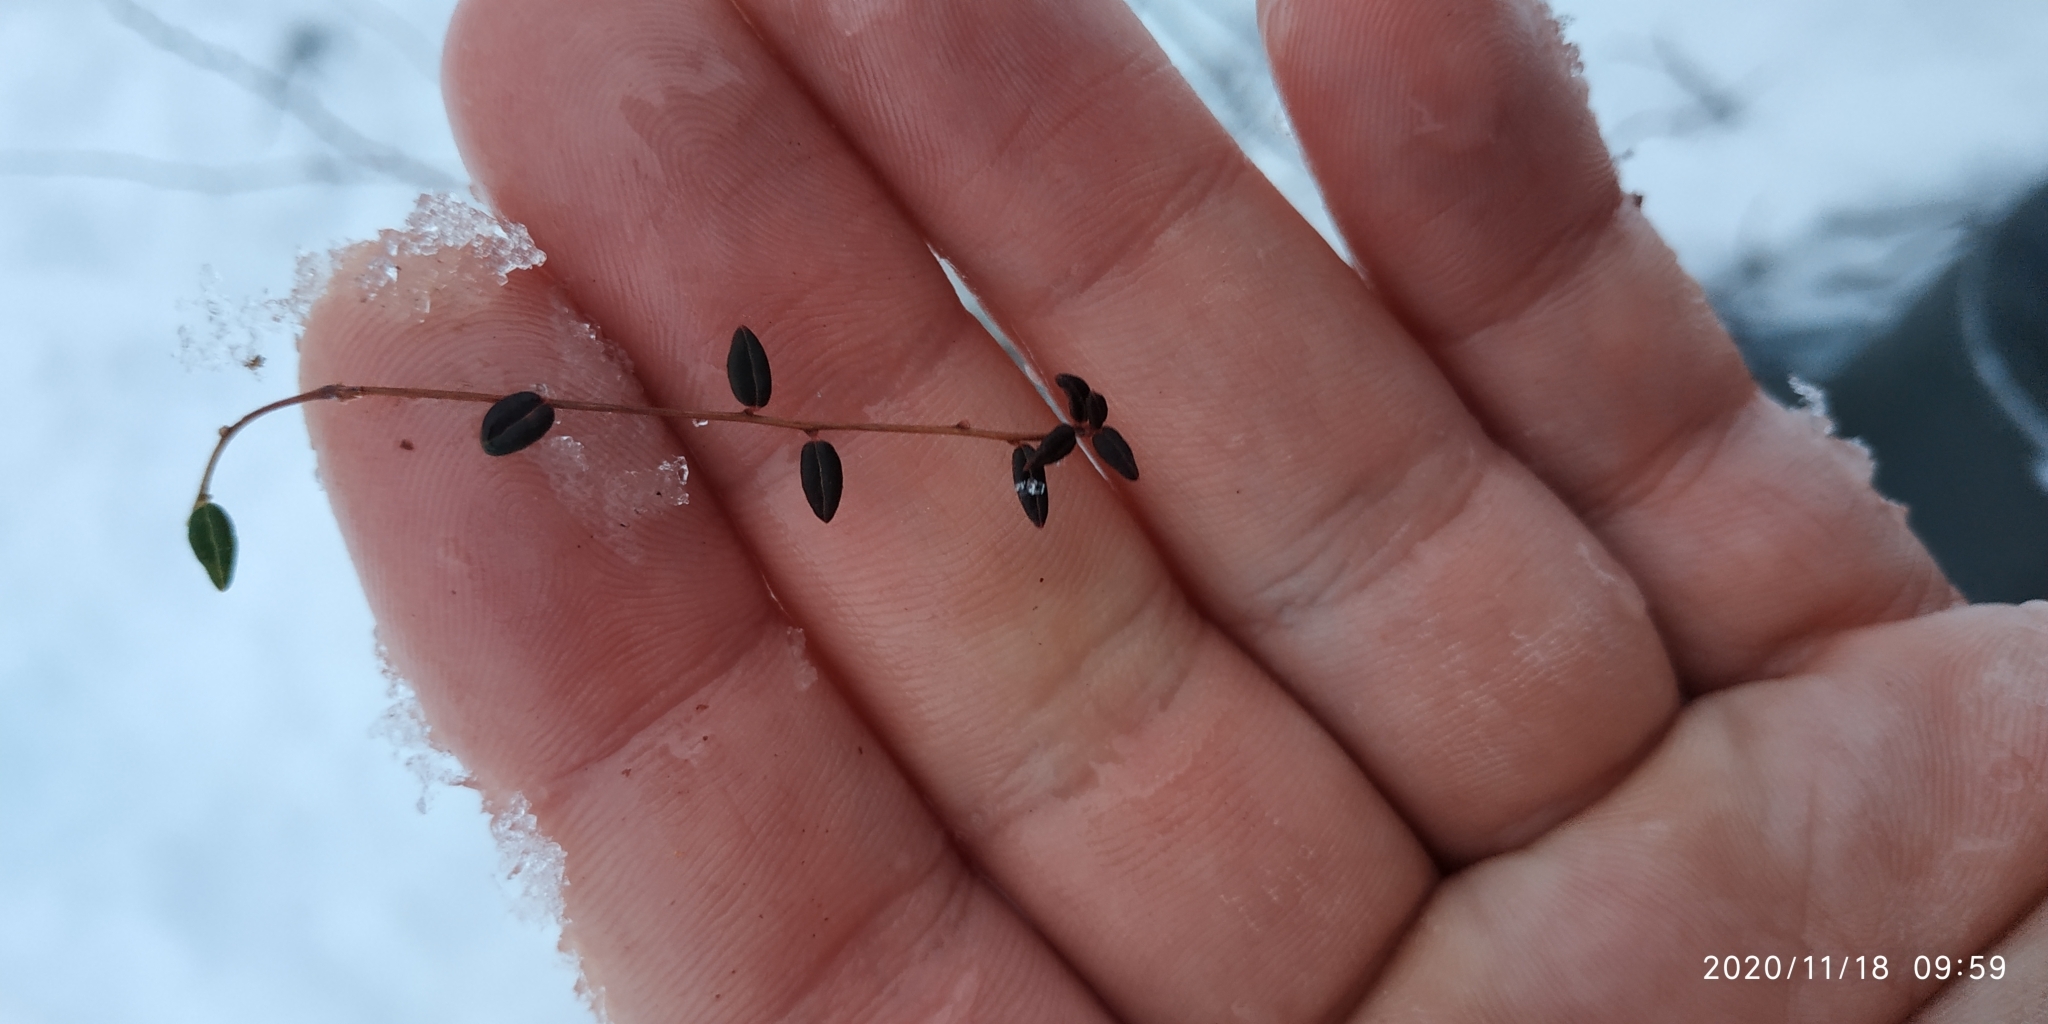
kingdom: Plantae
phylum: Tracheophyta
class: Magnoliopsida
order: Ericales
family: Ericaceae
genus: Vaccinium
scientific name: Vaccinium oxycoccos
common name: Cranberry
